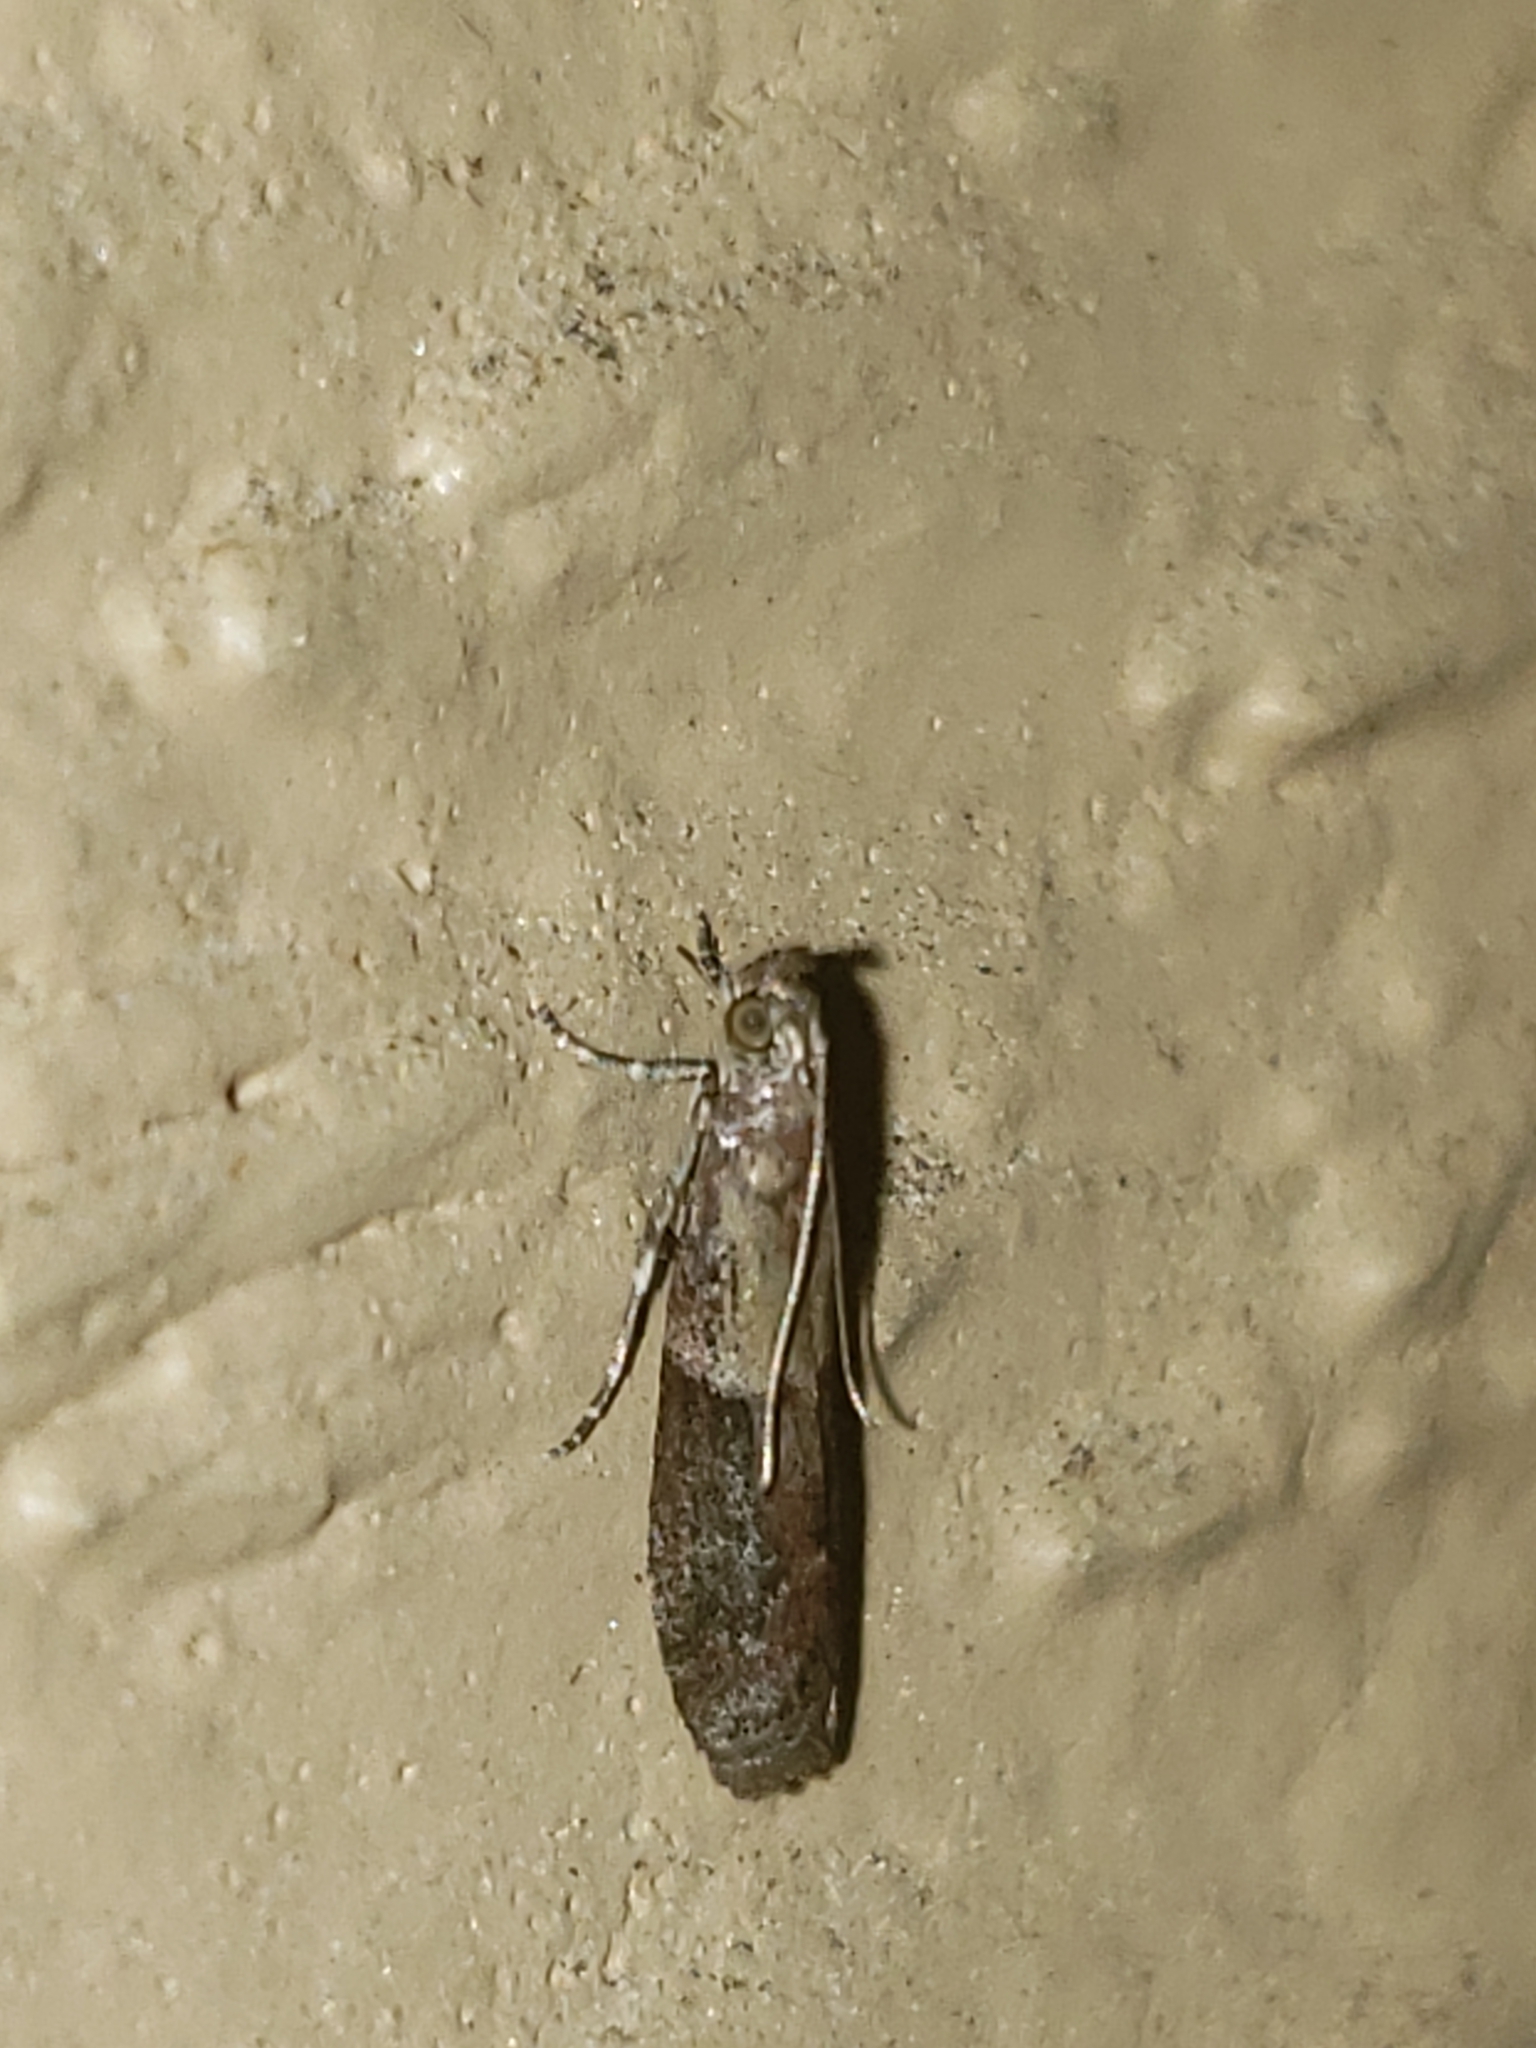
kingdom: Animalia
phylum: Arthropoda
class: Insecta
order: Lepidoptera
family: Pyralidae
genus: Ephestiodes
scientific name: Ephestiodes infimella
